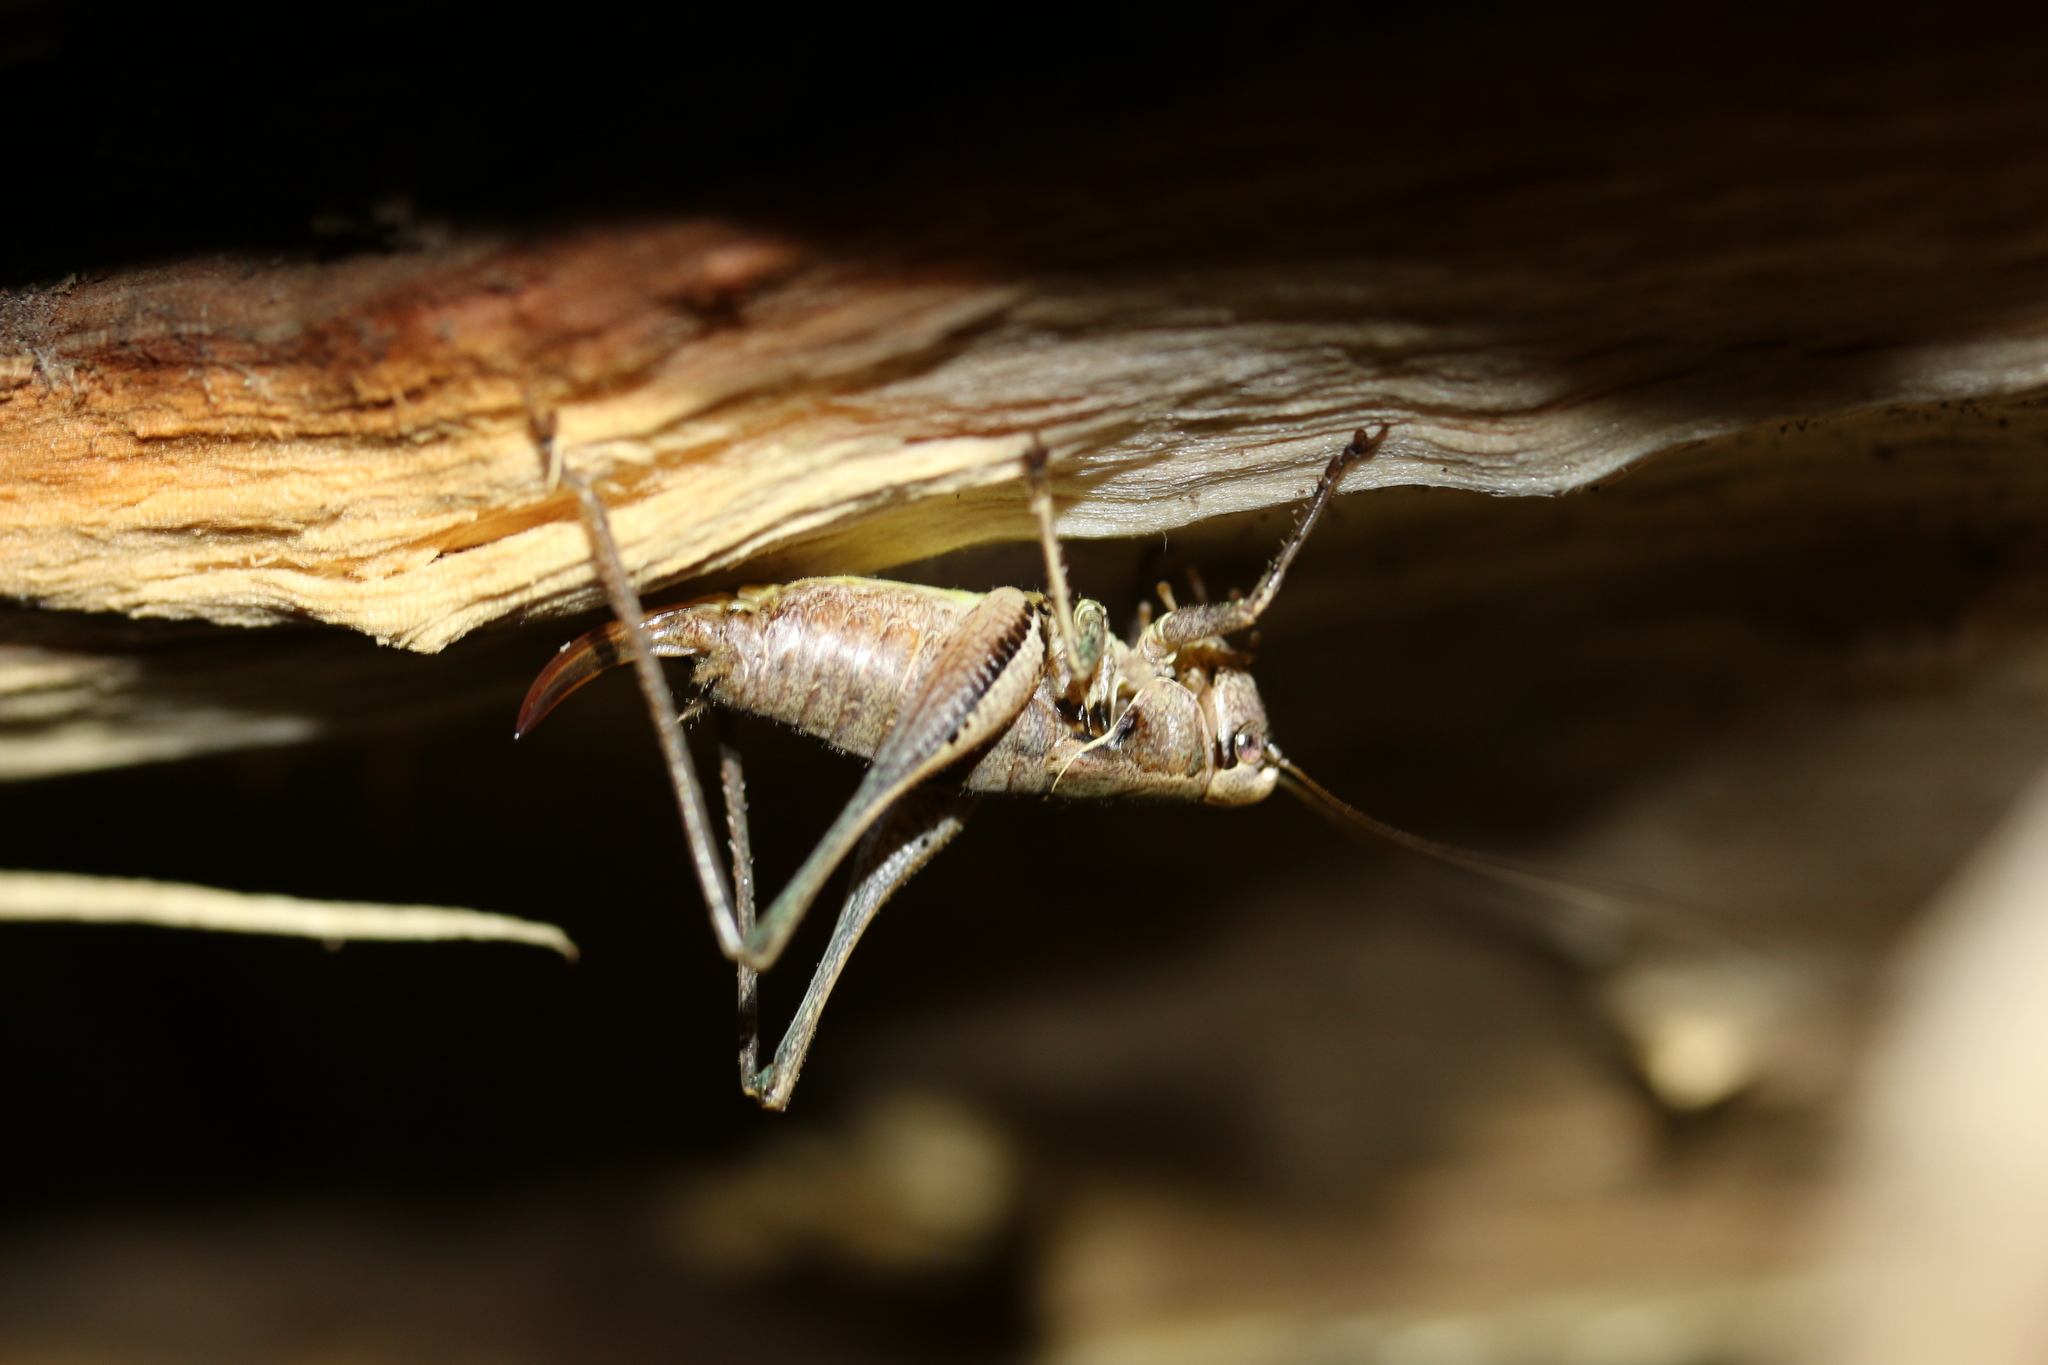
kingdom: Animalia
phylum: Arthropoda
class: Insecta
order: Orthoptera
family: Tettigoniidae
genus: Pholidoptera
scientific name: Pholidoptera griseoaptera
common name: Dark bush-cricket
